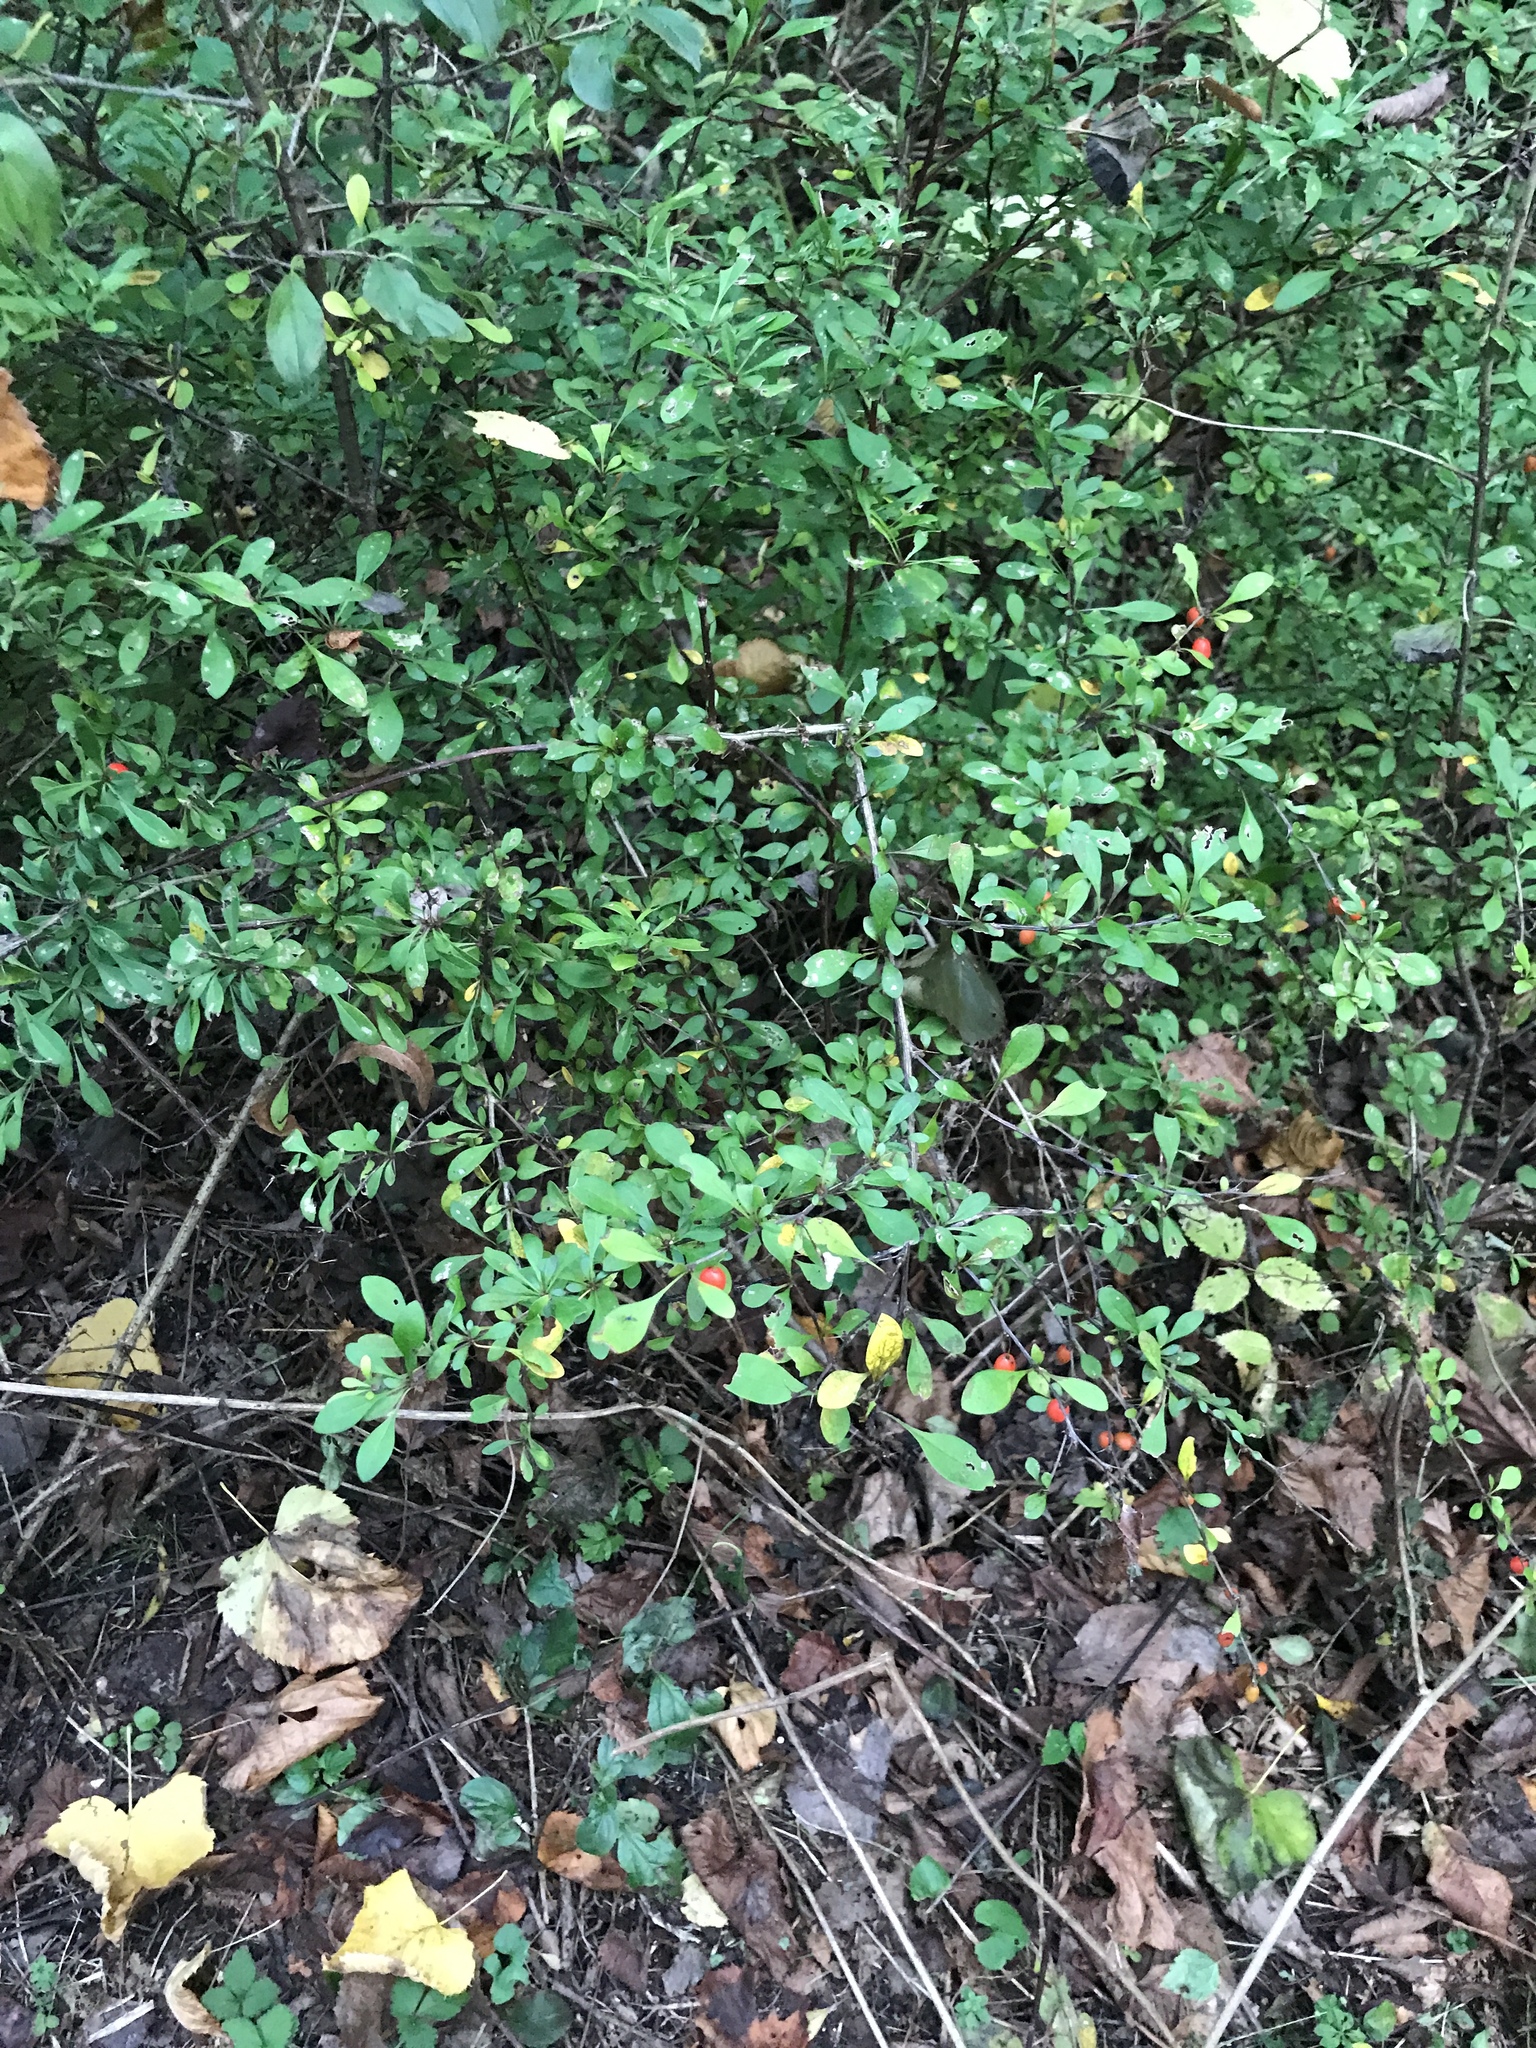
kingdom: Plantae
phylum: Tracheophyta
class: Magnoliopsida
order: Ranunculales
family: Berberidaceae
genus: Berberis
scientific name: Berberis thunbergii
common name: Japanese barberry
